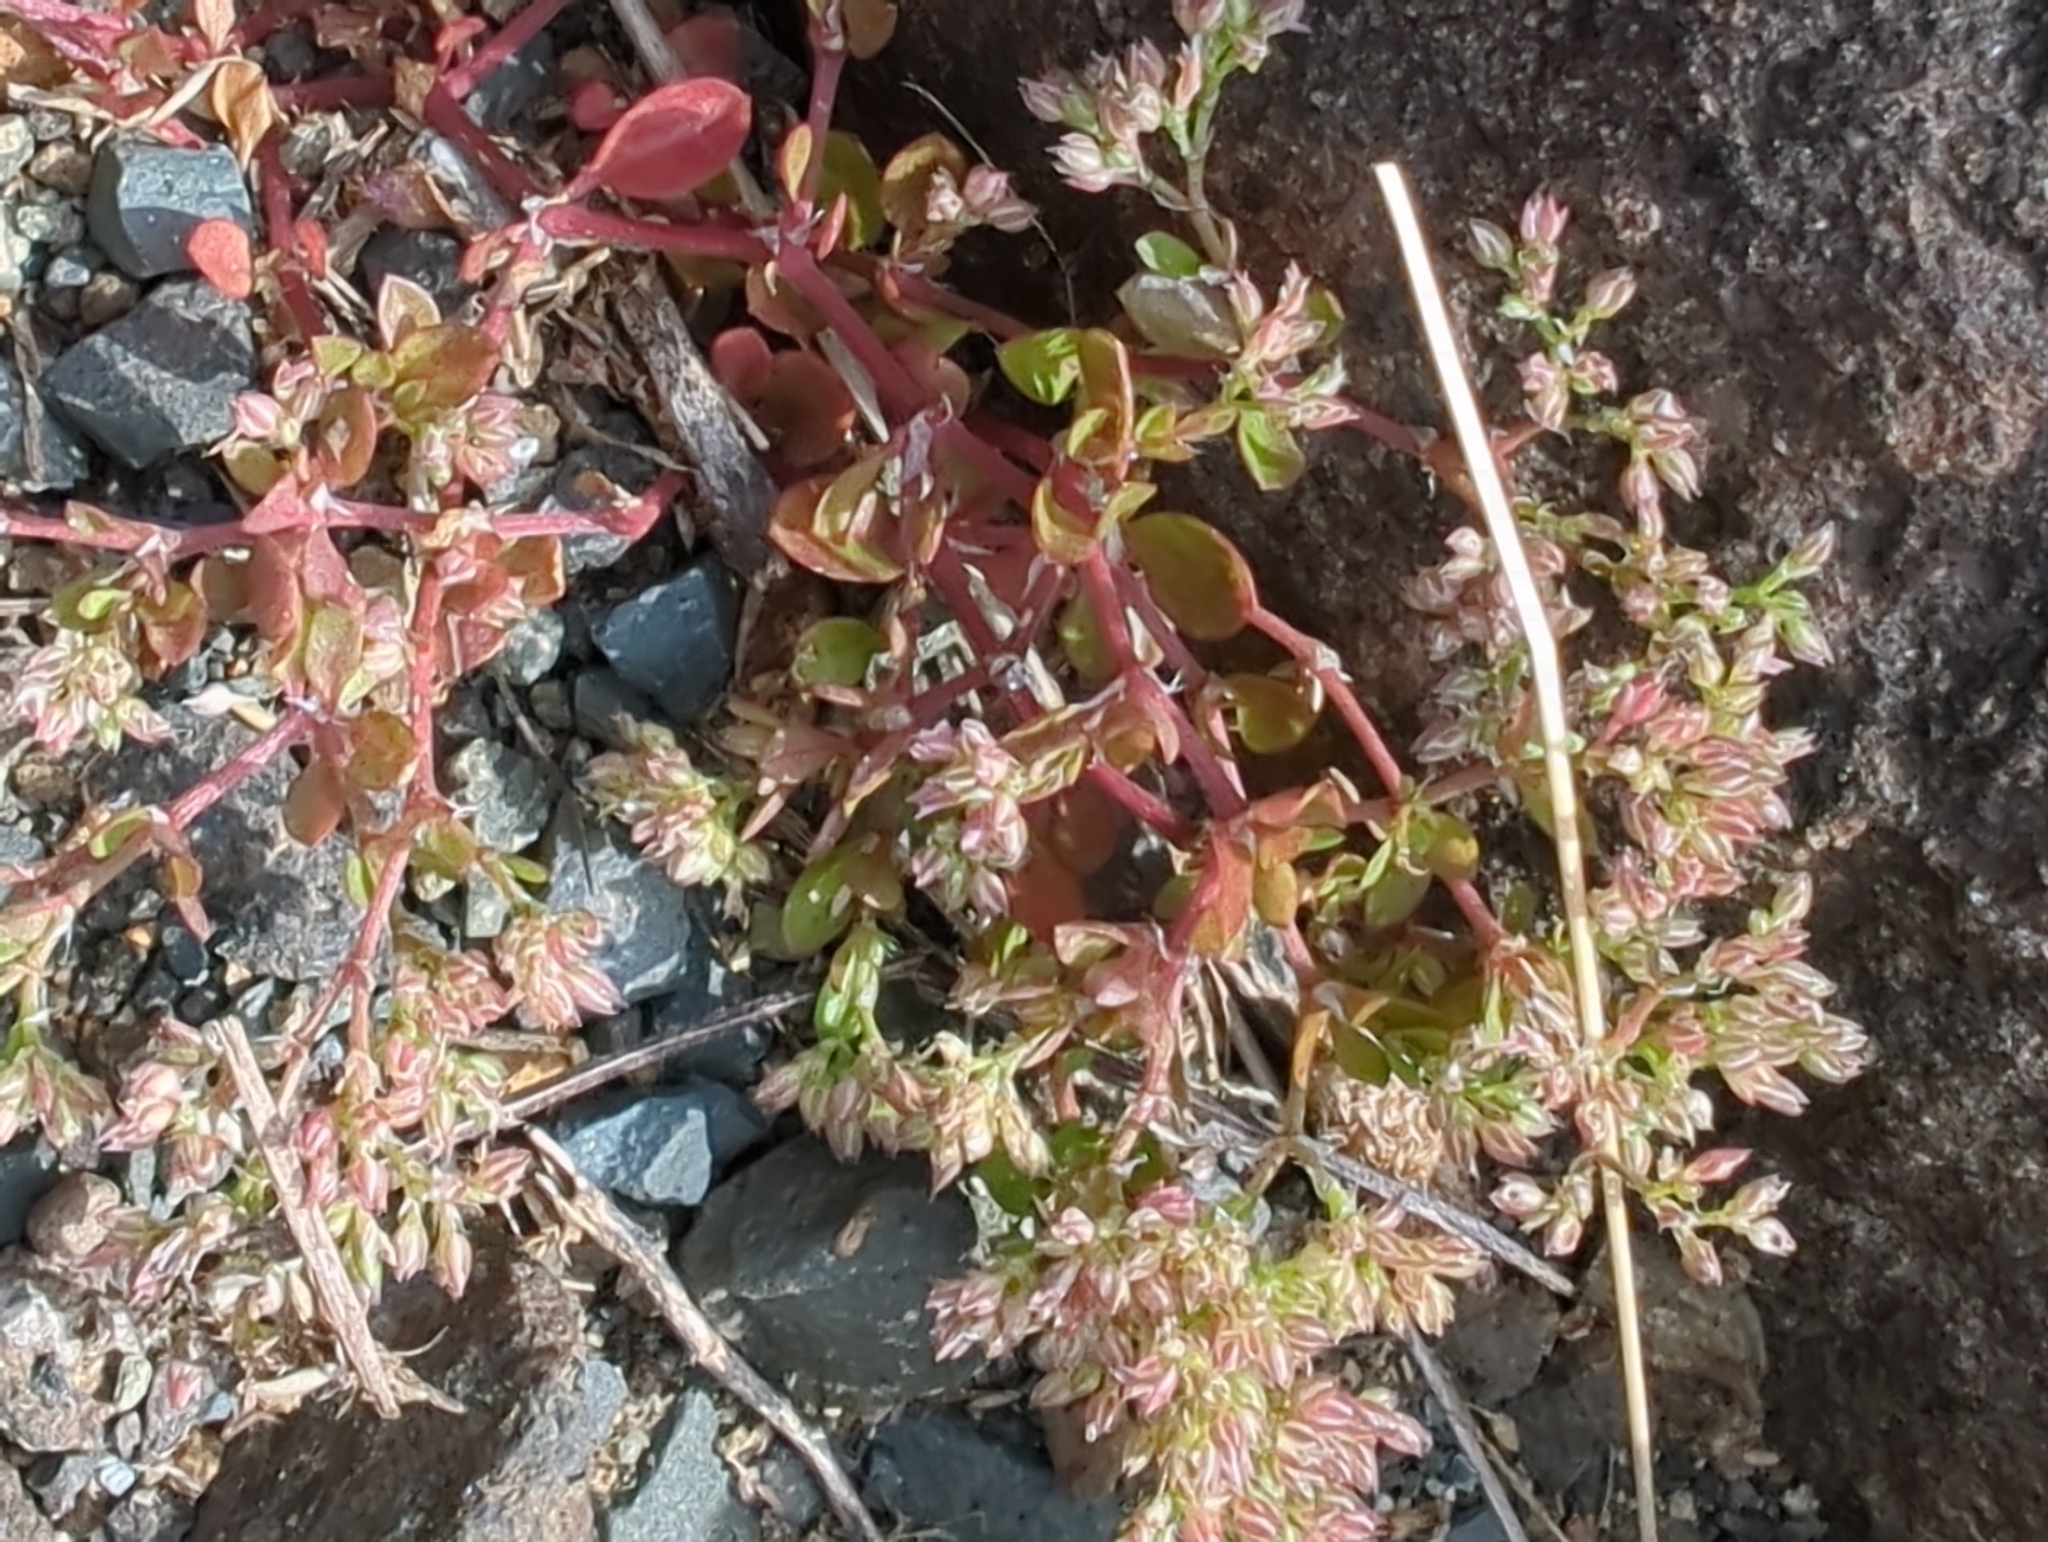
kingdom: Plantae
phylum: Tracheophyta
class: Magnoliopsida
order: Caryophyllales
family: Caryophyllaceae
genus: Polycarpon
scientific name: Polycarpon tetraphyllum
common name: Four-leaved all-seed
